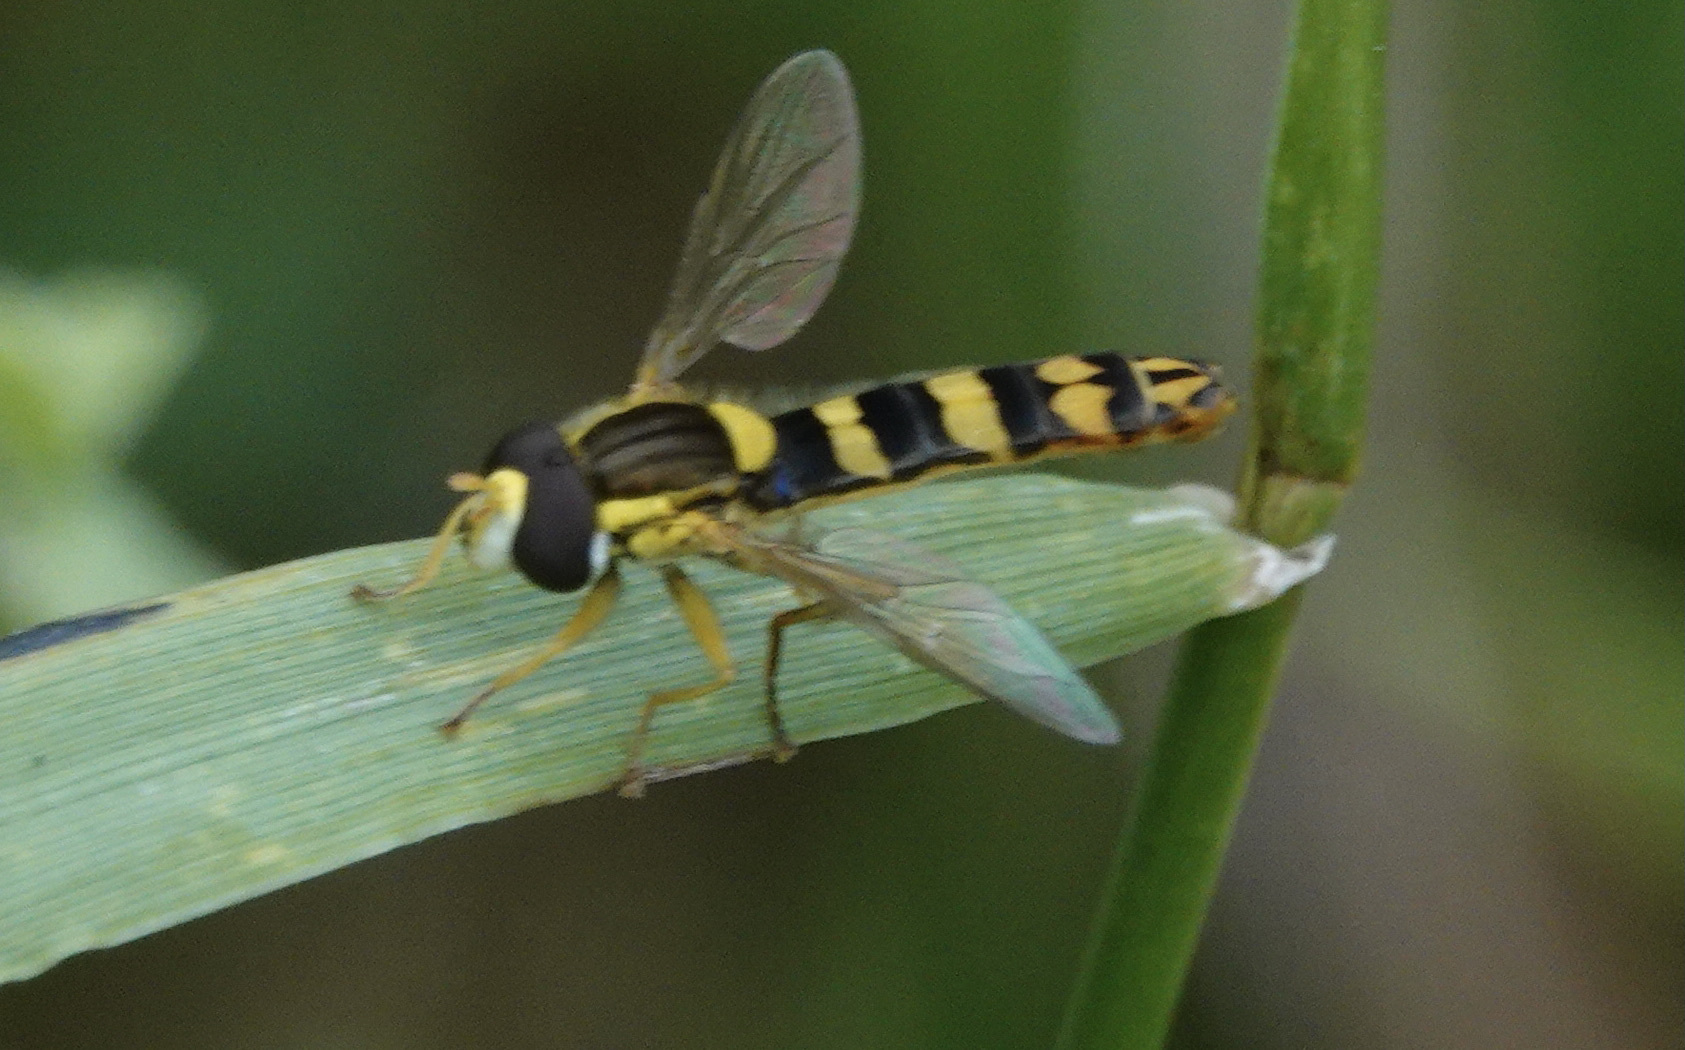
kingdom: Animalia
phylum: Arthropoda
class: Insecta
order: Diptera
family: Syrphidae
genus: Sphaerophoria
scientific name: Sphaerophoria scripta
